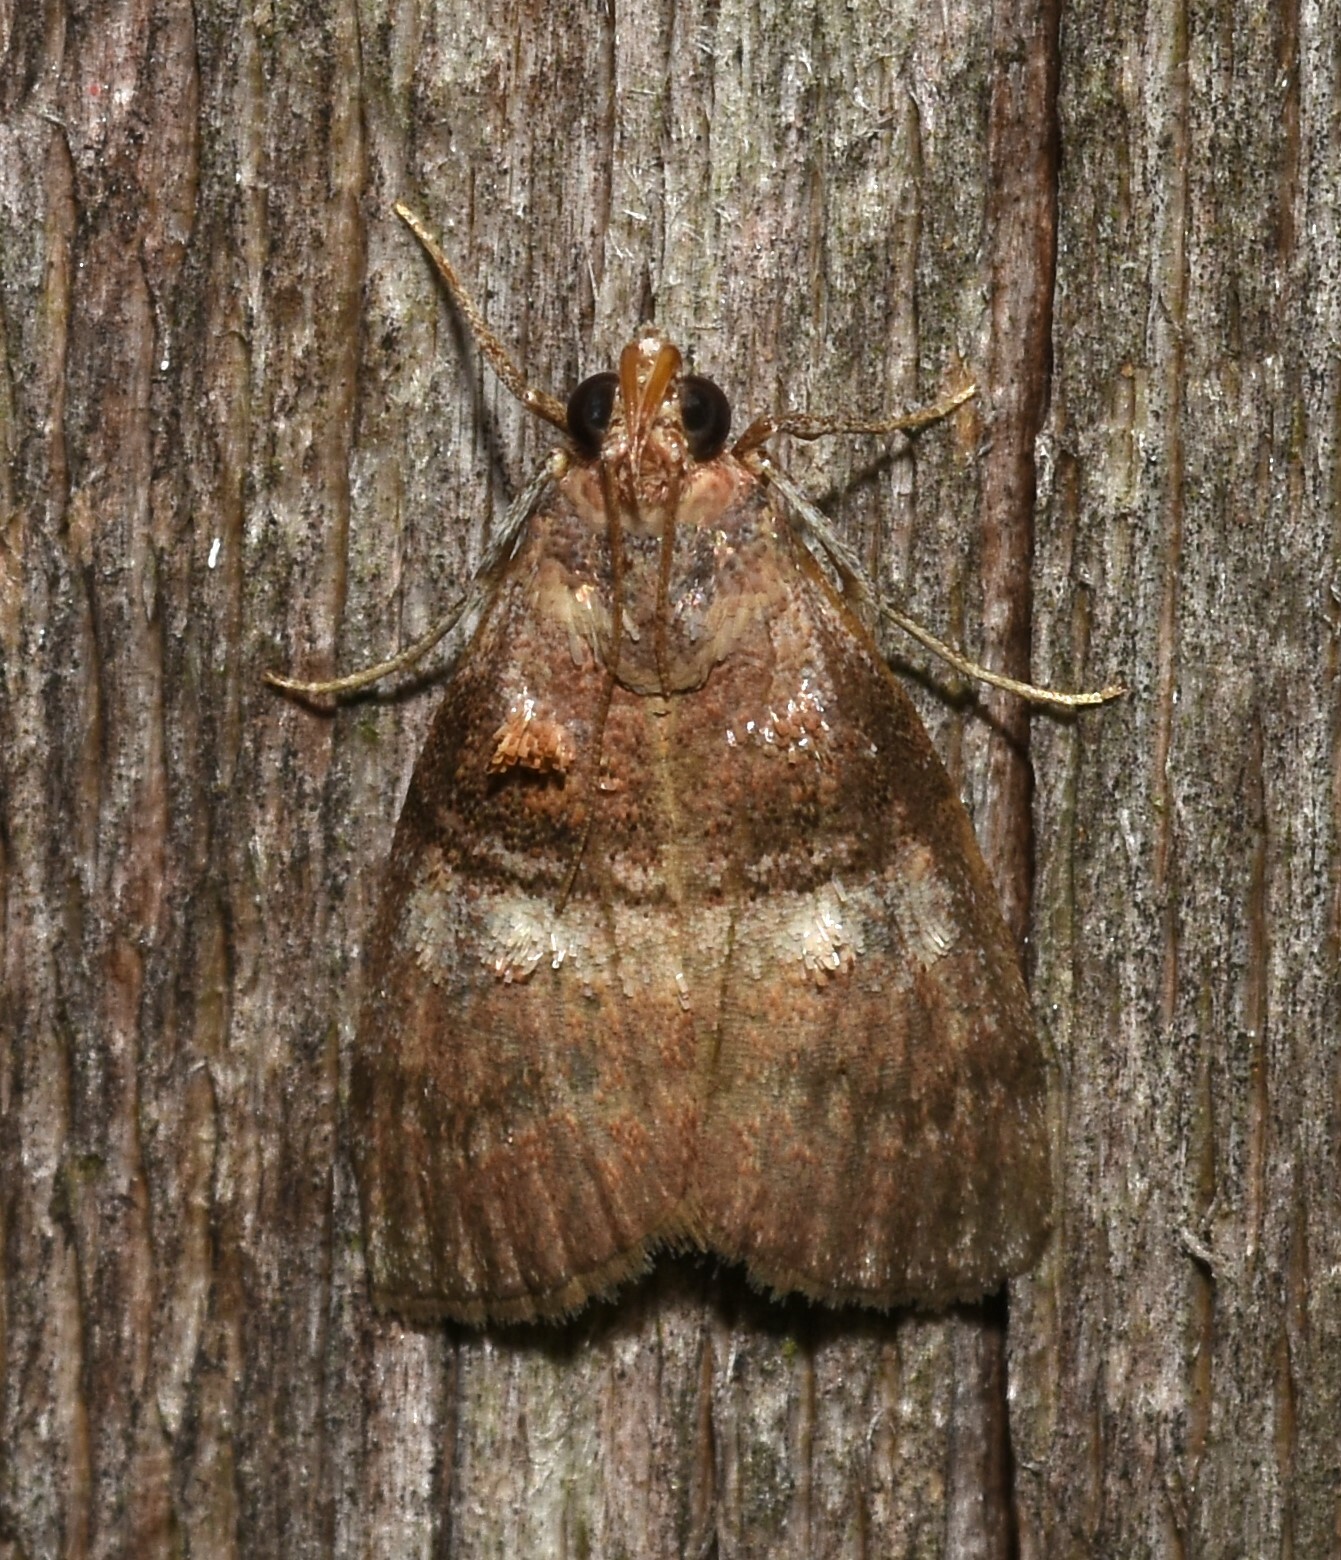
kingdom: Animalia
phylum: Arthropoda
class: Insecta
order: Lepidoptera
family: Pyralidae
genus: Pococera
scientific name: Pococera militella
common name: Sycamore webworm moth
